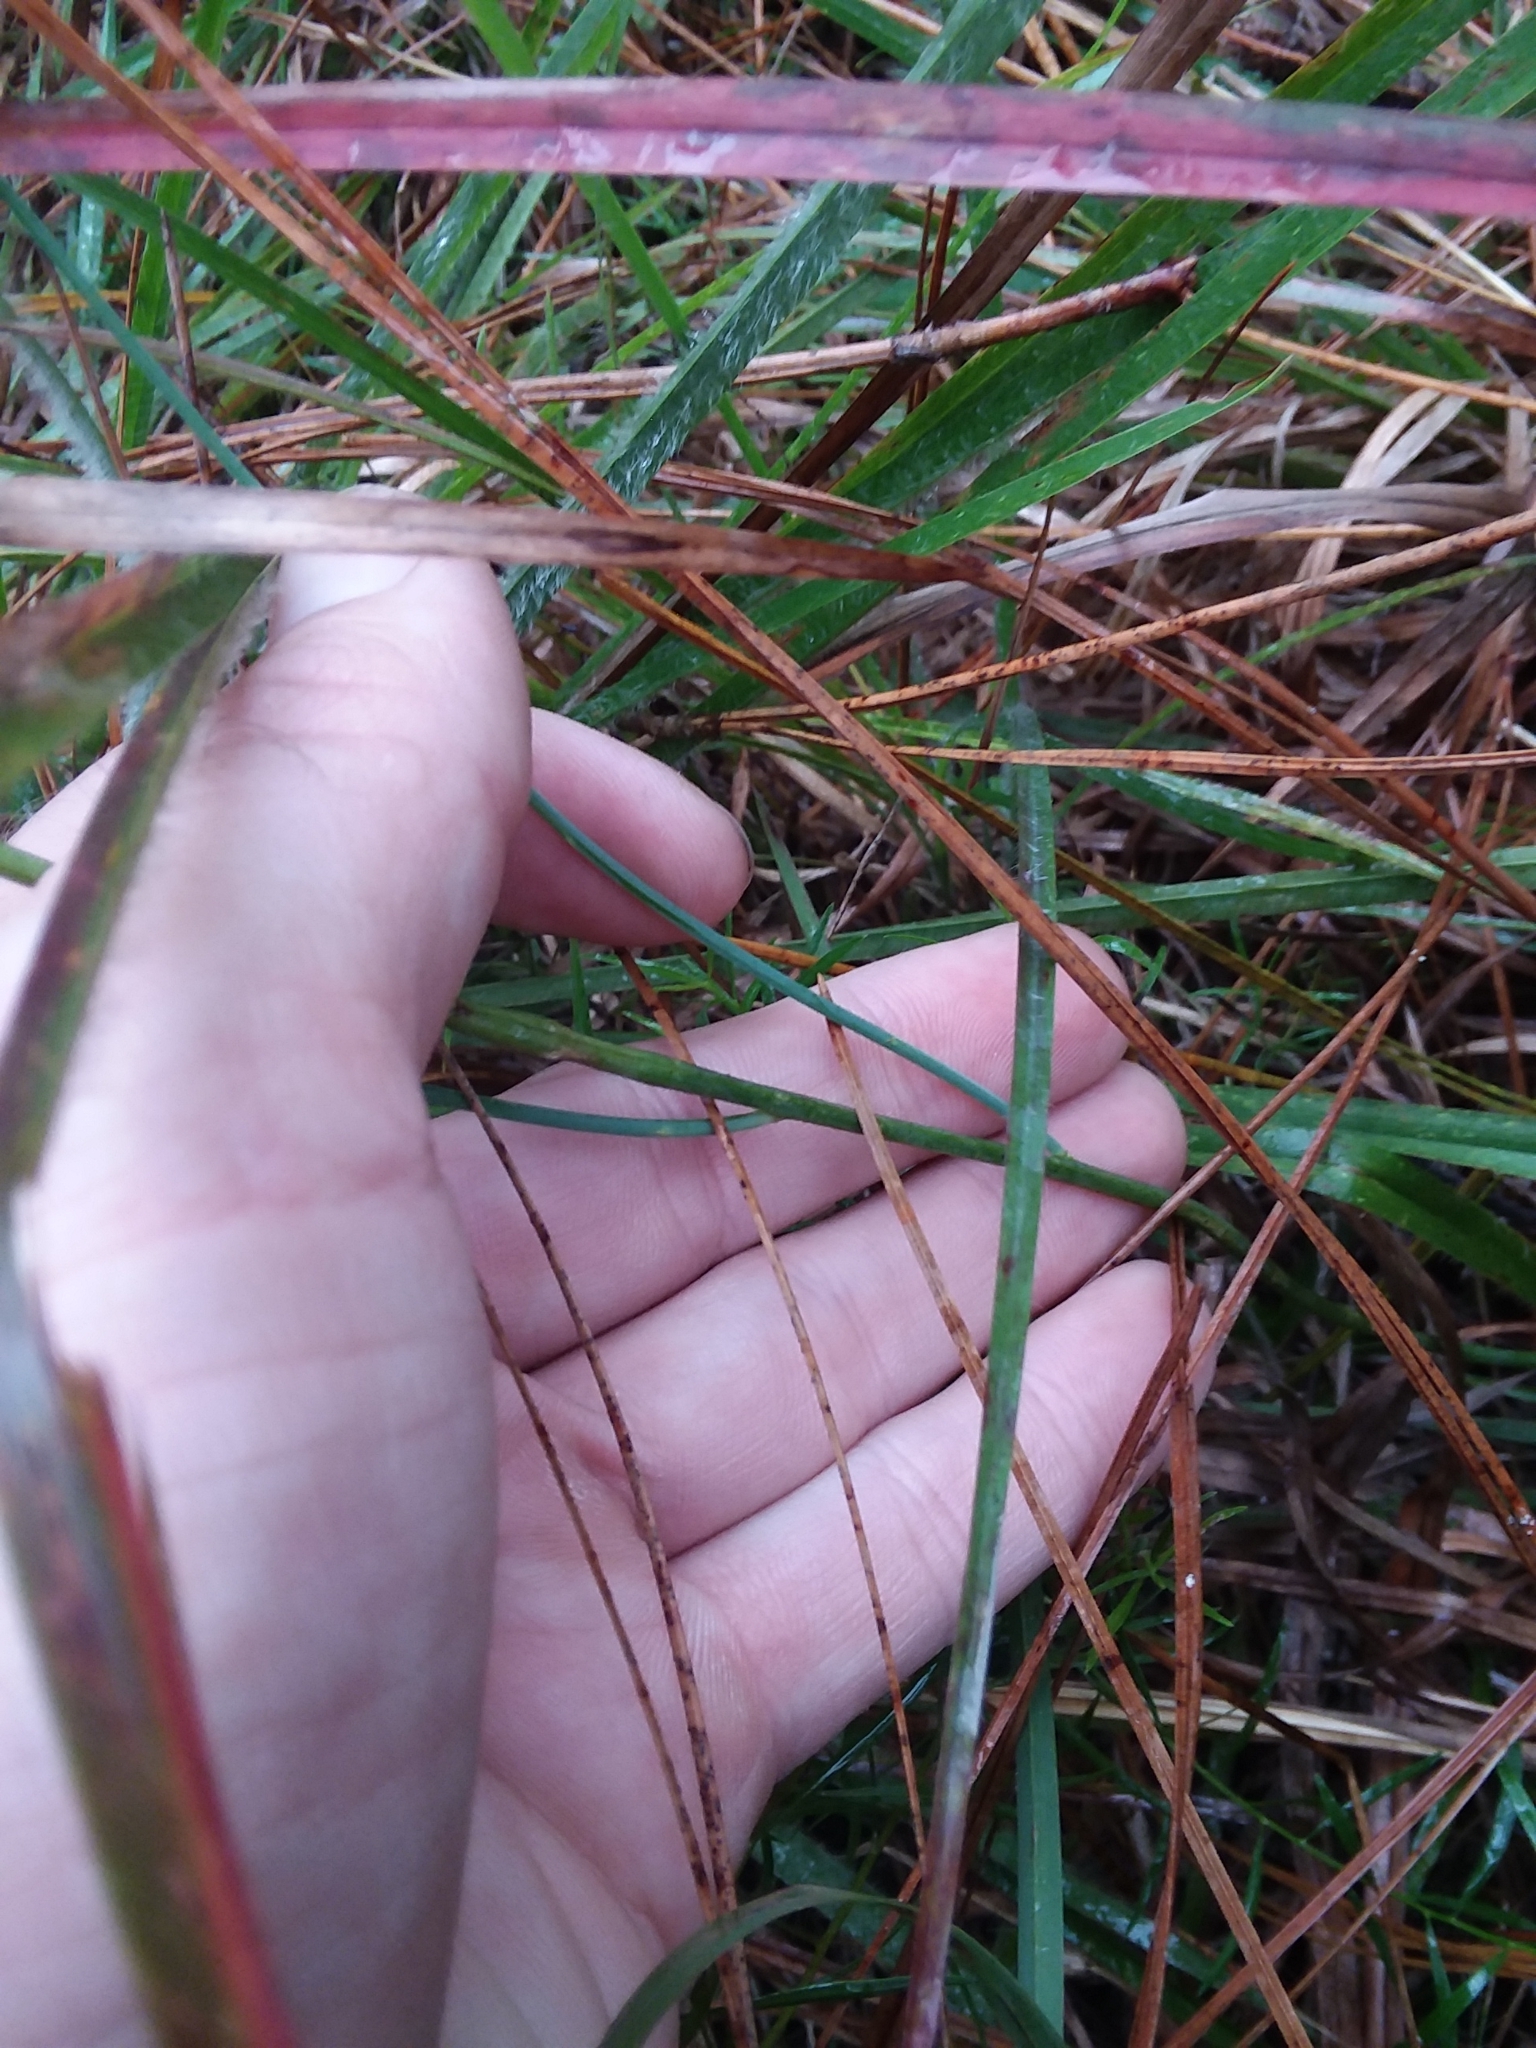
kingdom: Plantae
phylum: Tracheophyta
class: Magnoliopsida
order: Fabales
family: Polygalaceae
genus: Polygala
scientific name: Polygala incarnata
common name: Pink milkwort
